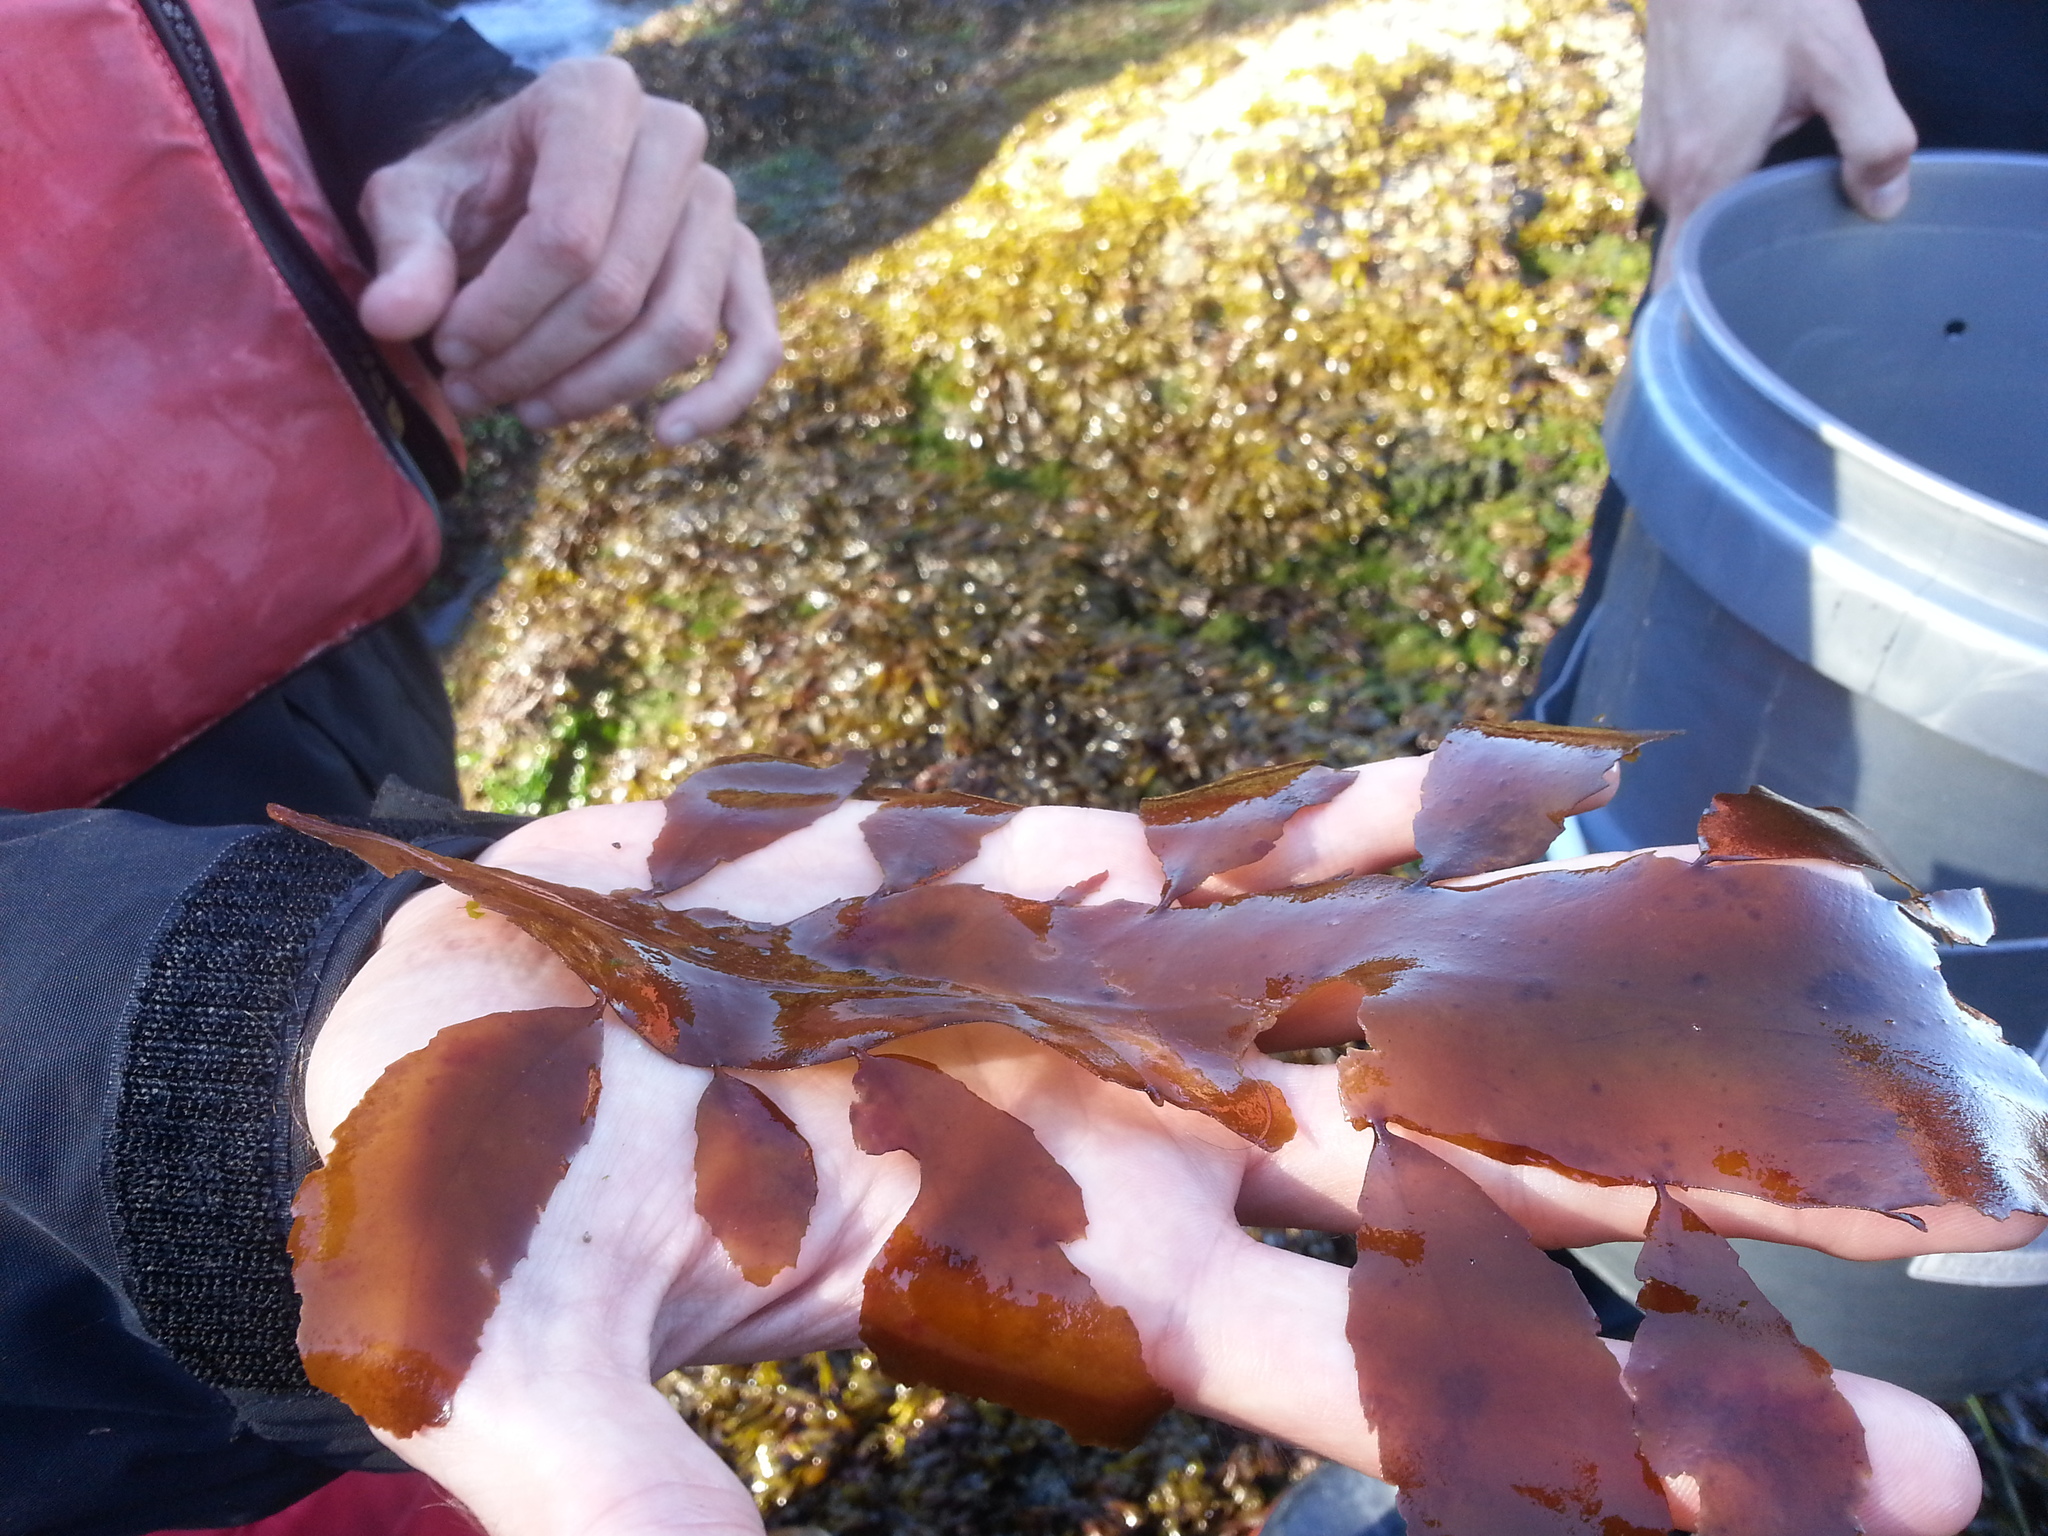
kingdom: Chromista
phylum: Ochrophyta
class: Phaeophyceae
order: Desmarestiales
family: Desmarestiaceae
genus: Desmarestia
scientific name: Desmarestia ligulata
